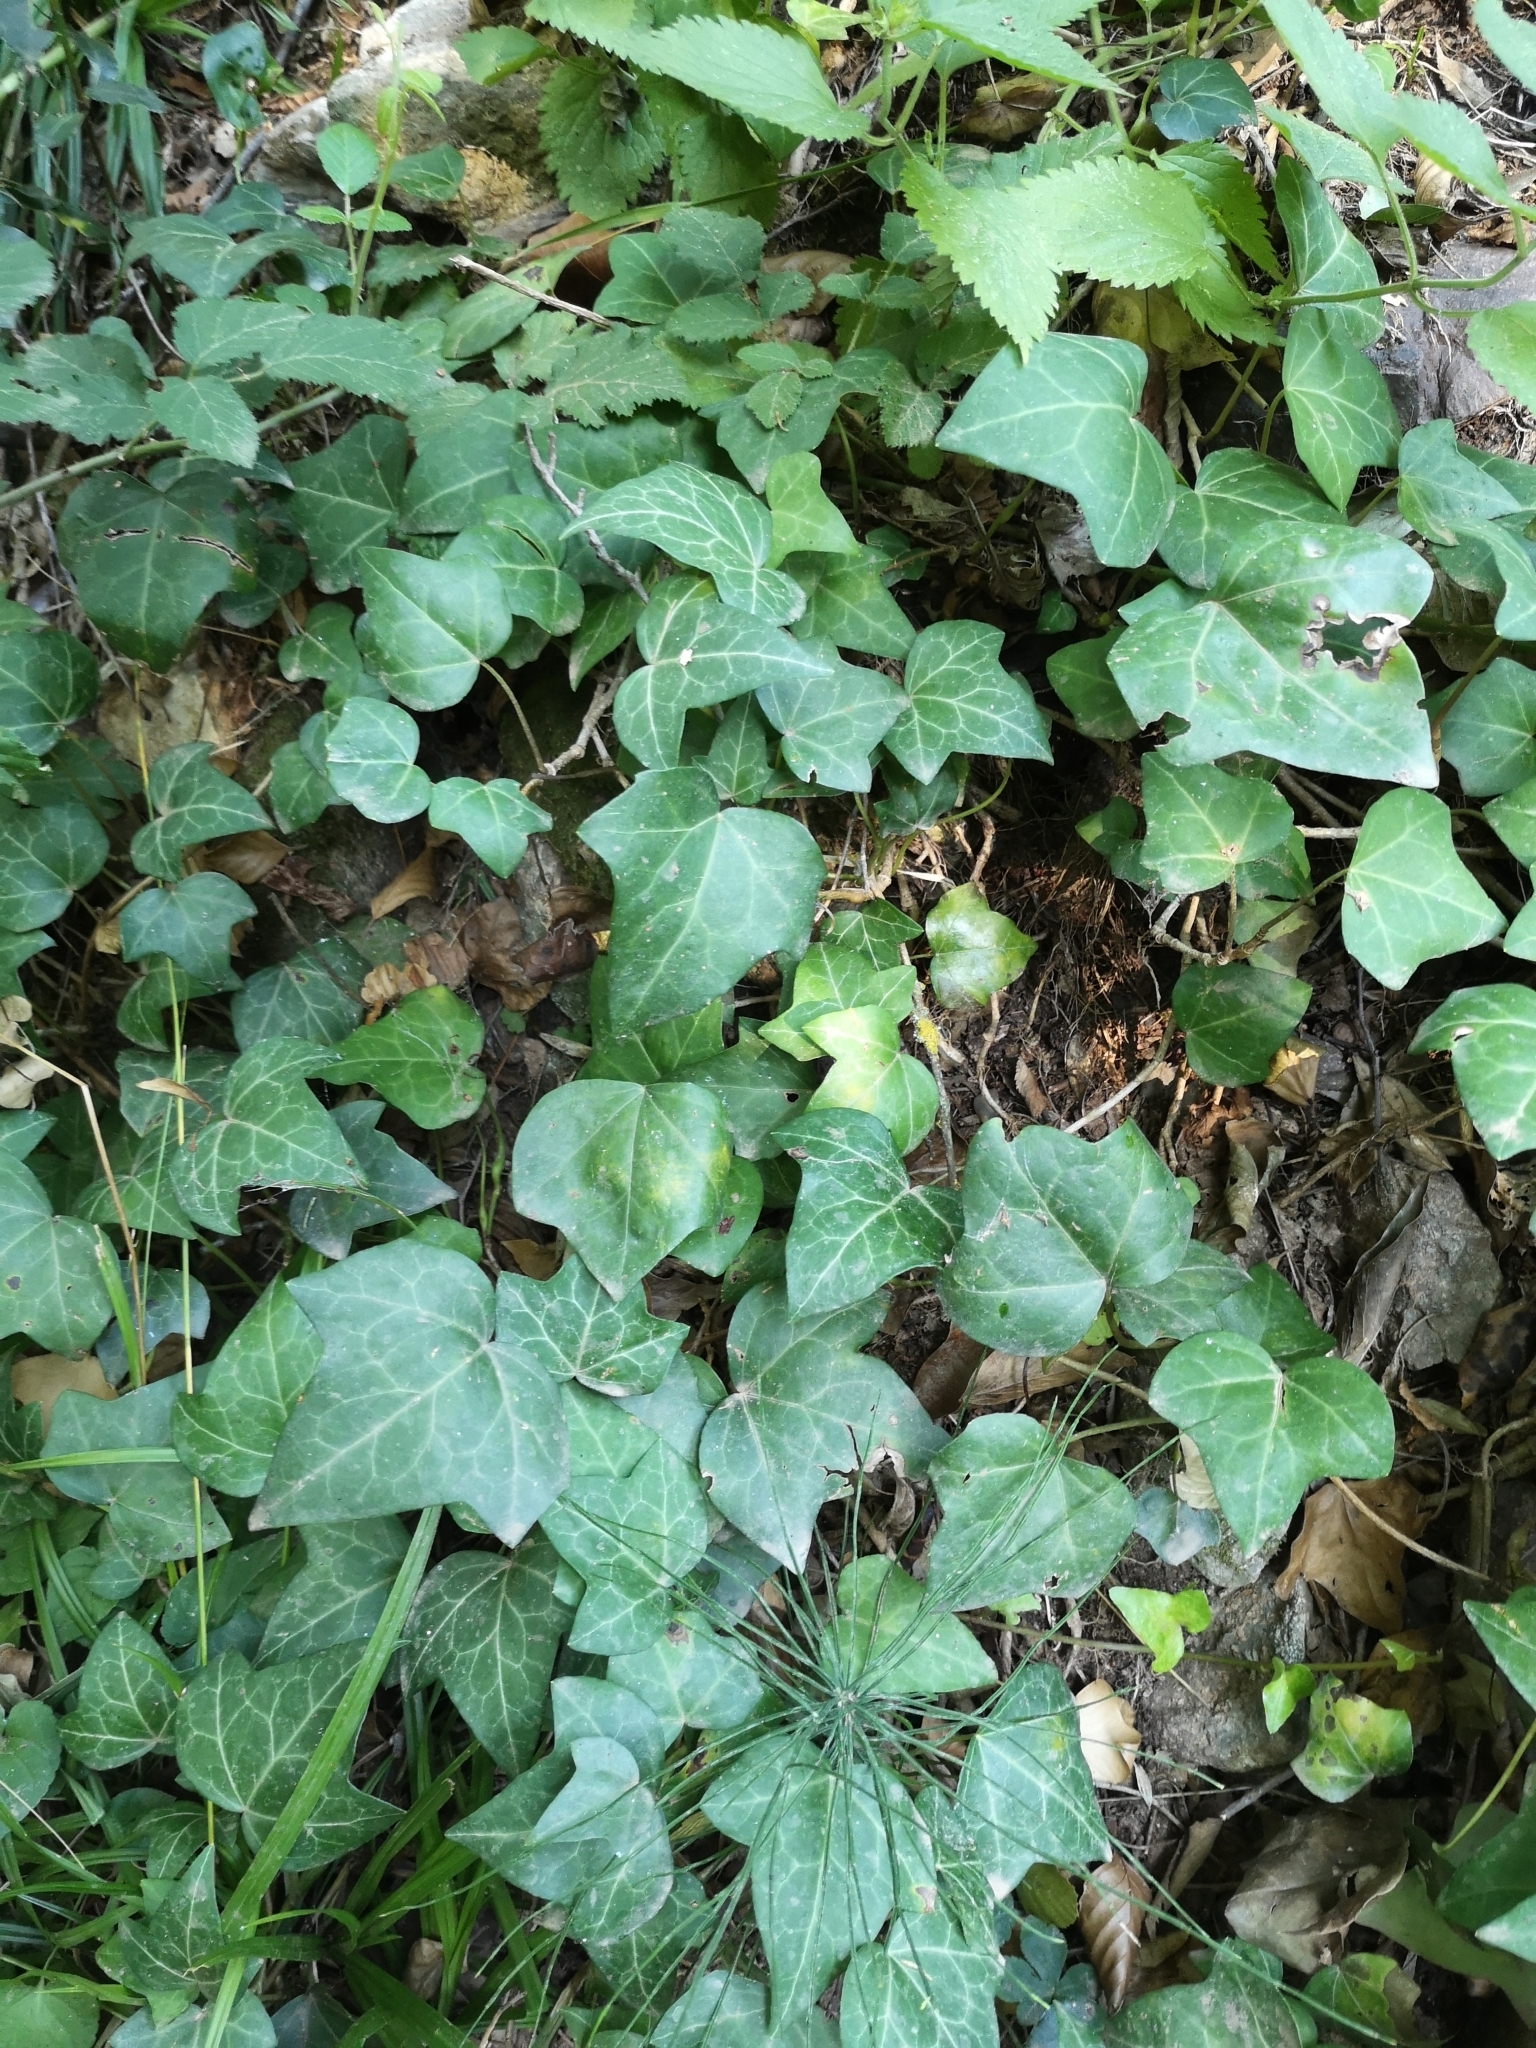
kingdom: Plantae
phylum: Tracheophyta
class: Magnoliopsida
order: Apiales
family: Araliaceae
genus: Hedera
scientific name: Hedera helix
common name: Ivy
